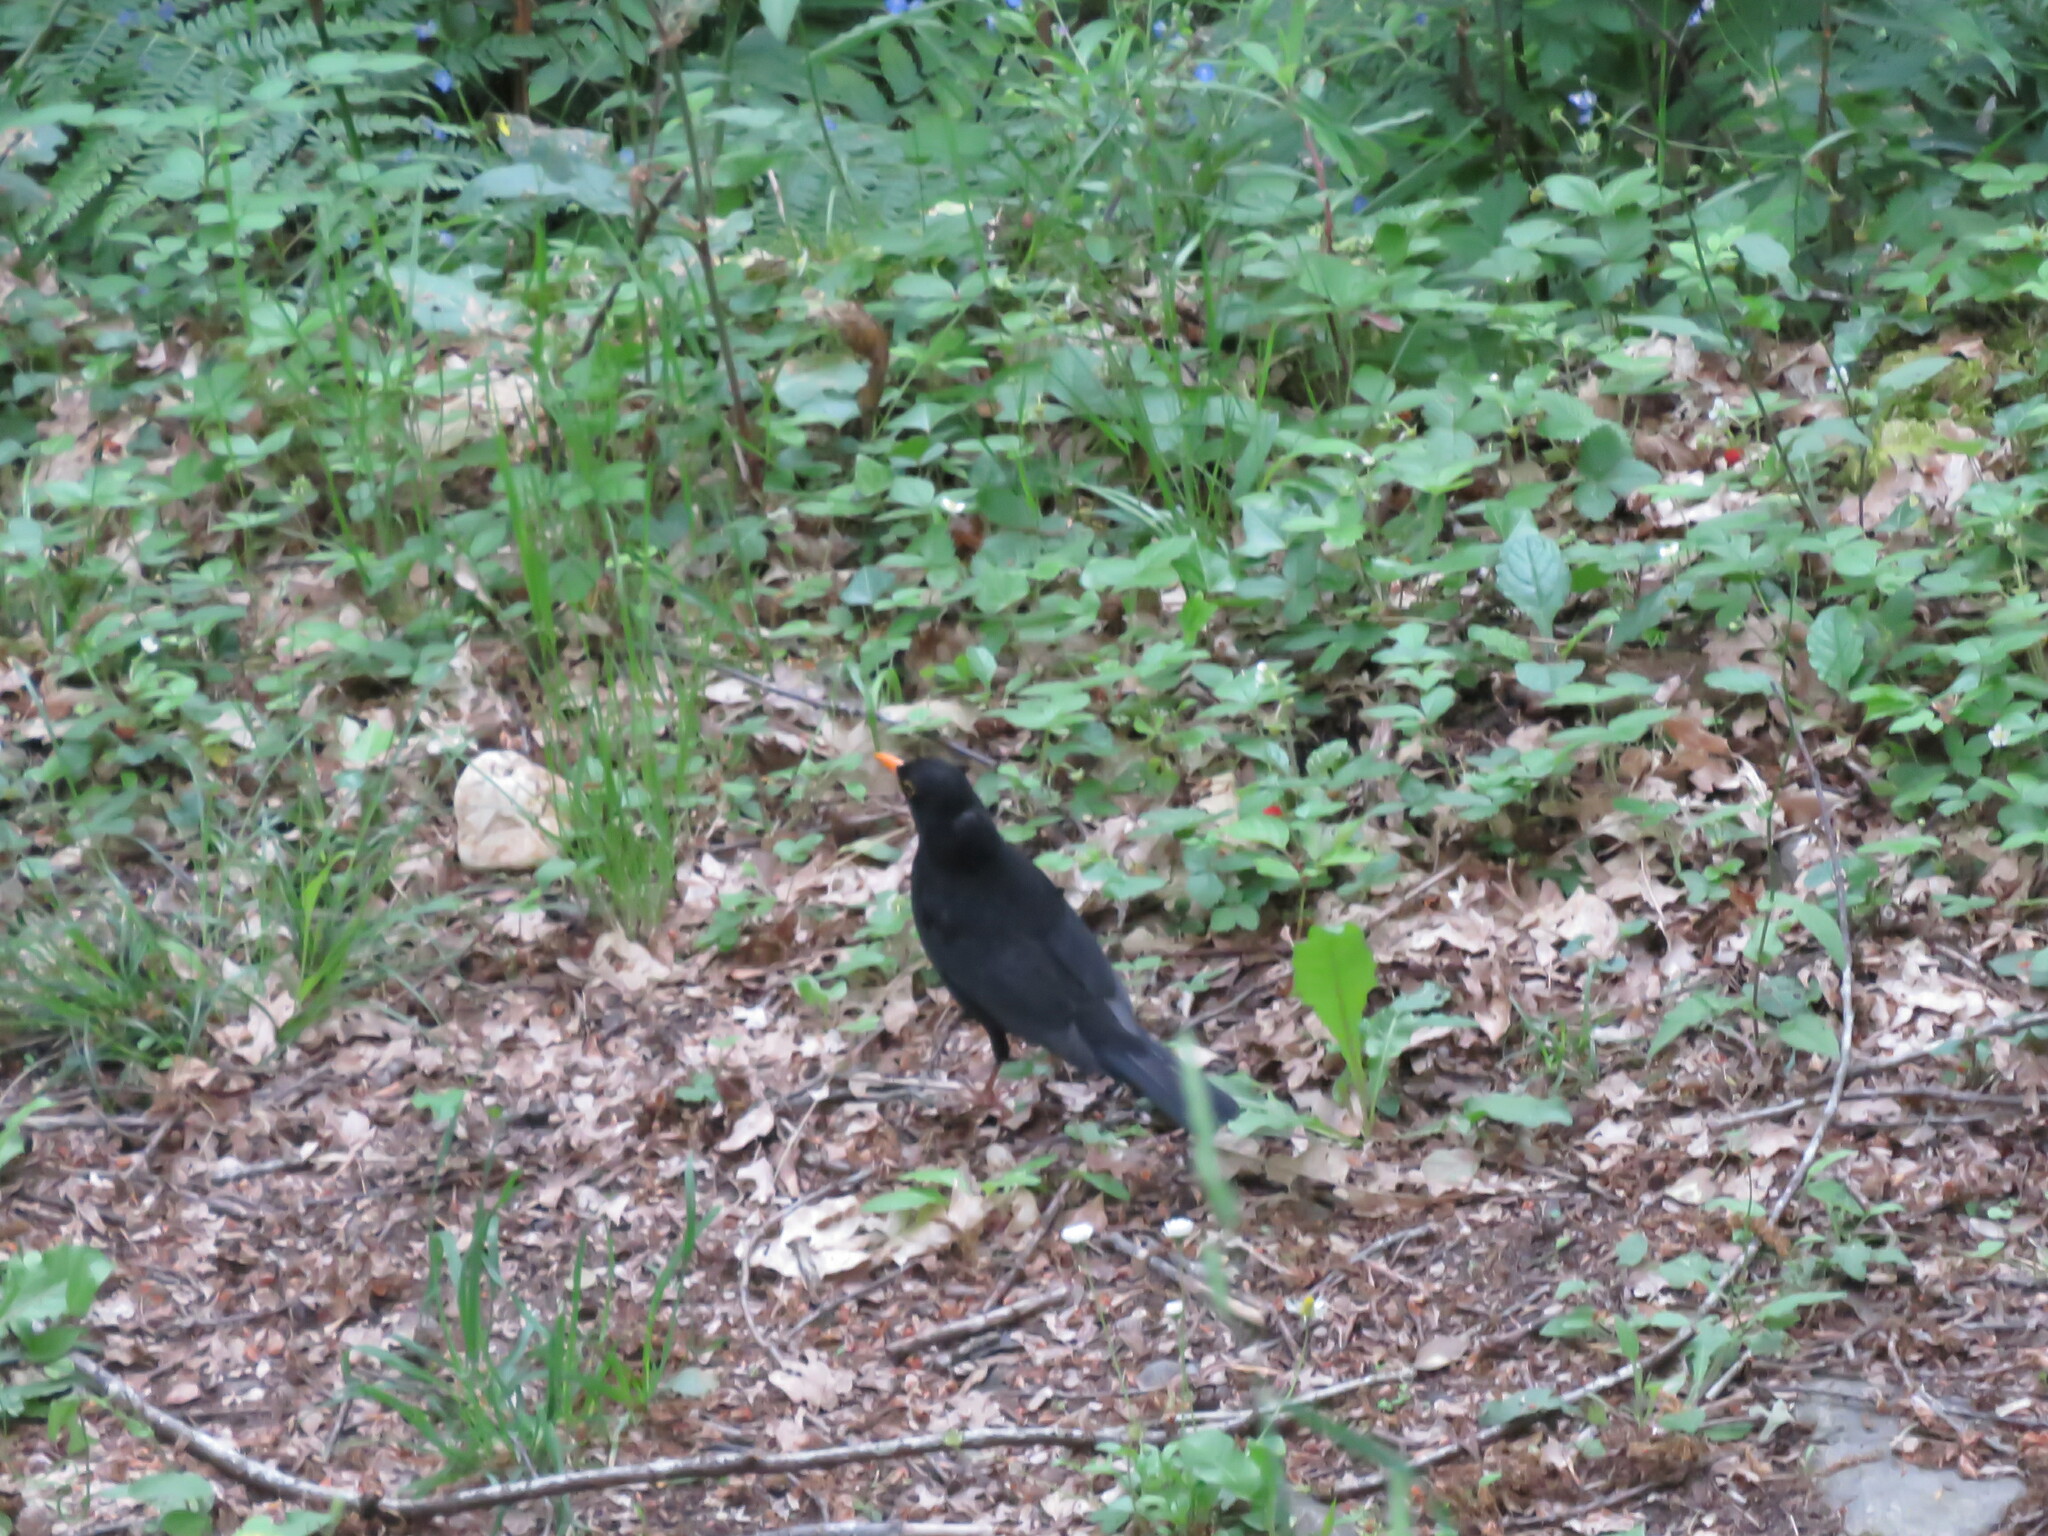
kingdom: Animalia
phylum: Chordata
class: Aves
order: Passeriformes
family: Turdidae
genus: Turdus
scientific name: Turdus merula
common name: Common blackbird
